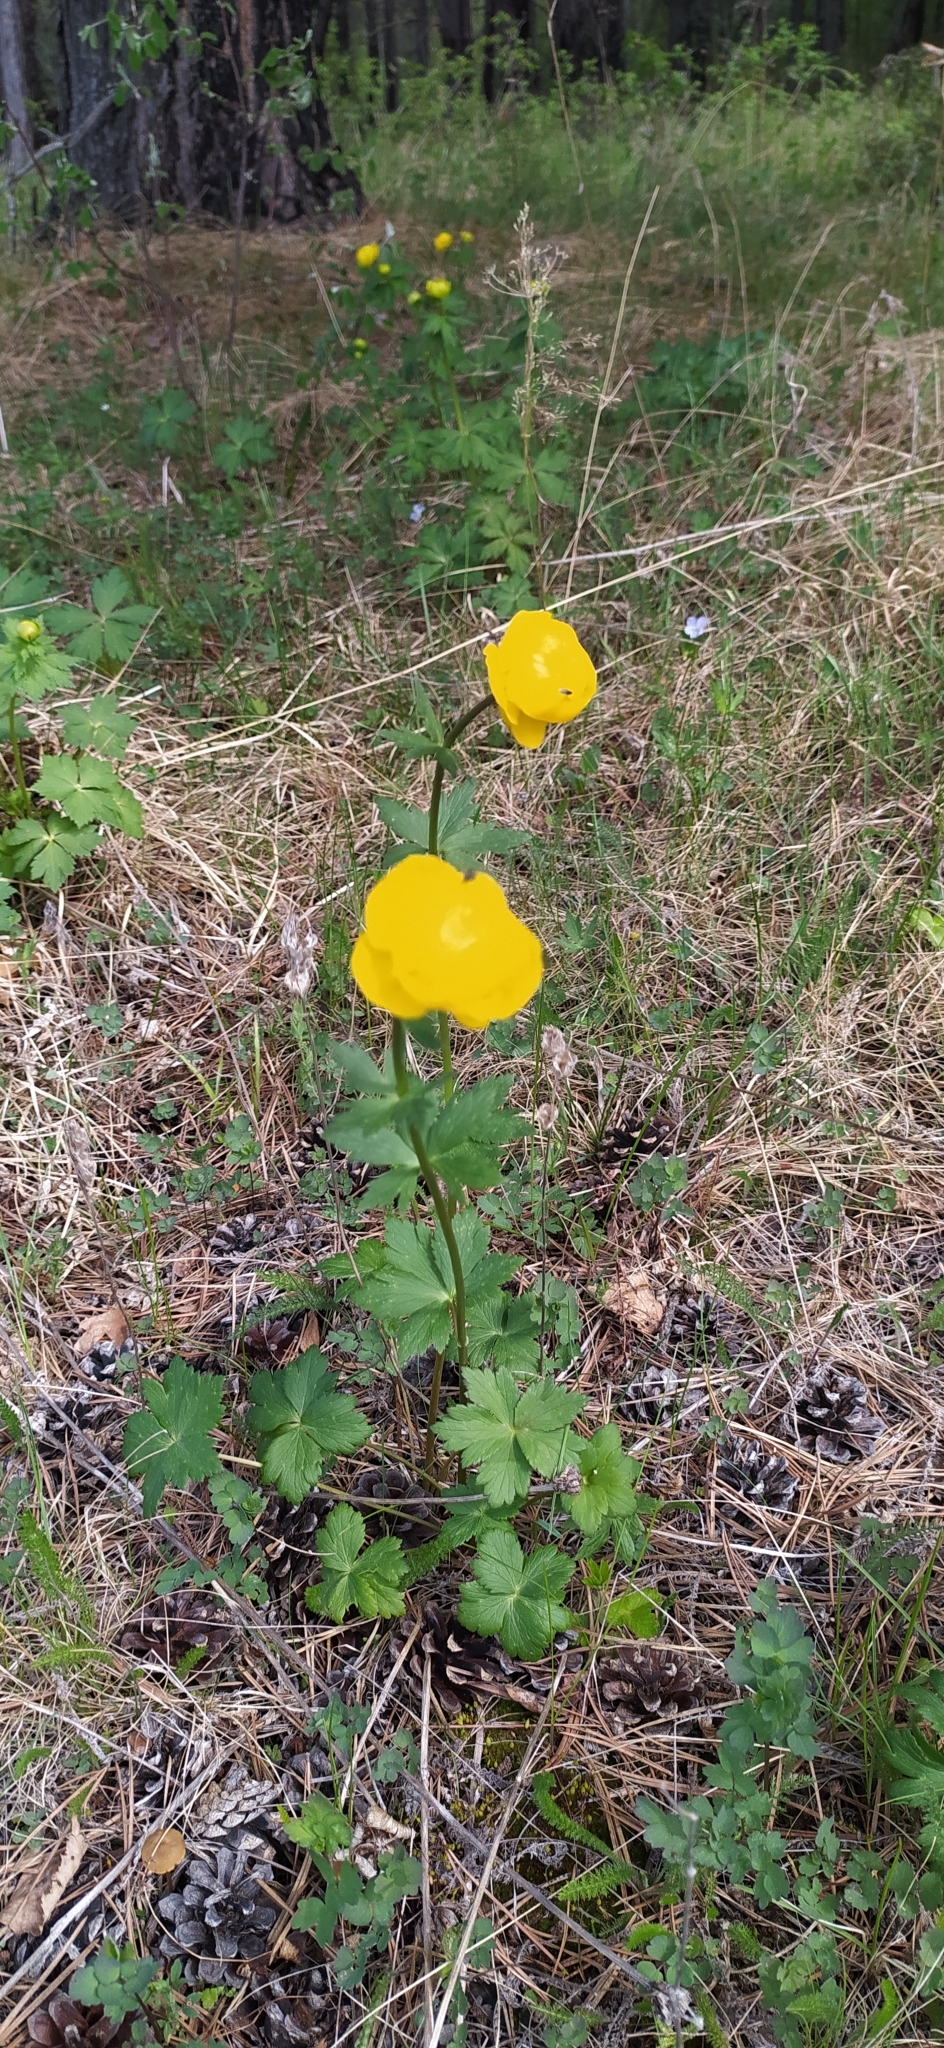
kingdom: Plantae
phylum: Tracheophyta
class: Magnoliopsida
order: Ranunculales
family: Ranunculaceae
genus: Trollius
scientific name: Trollius europaeus
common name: European globeflower
